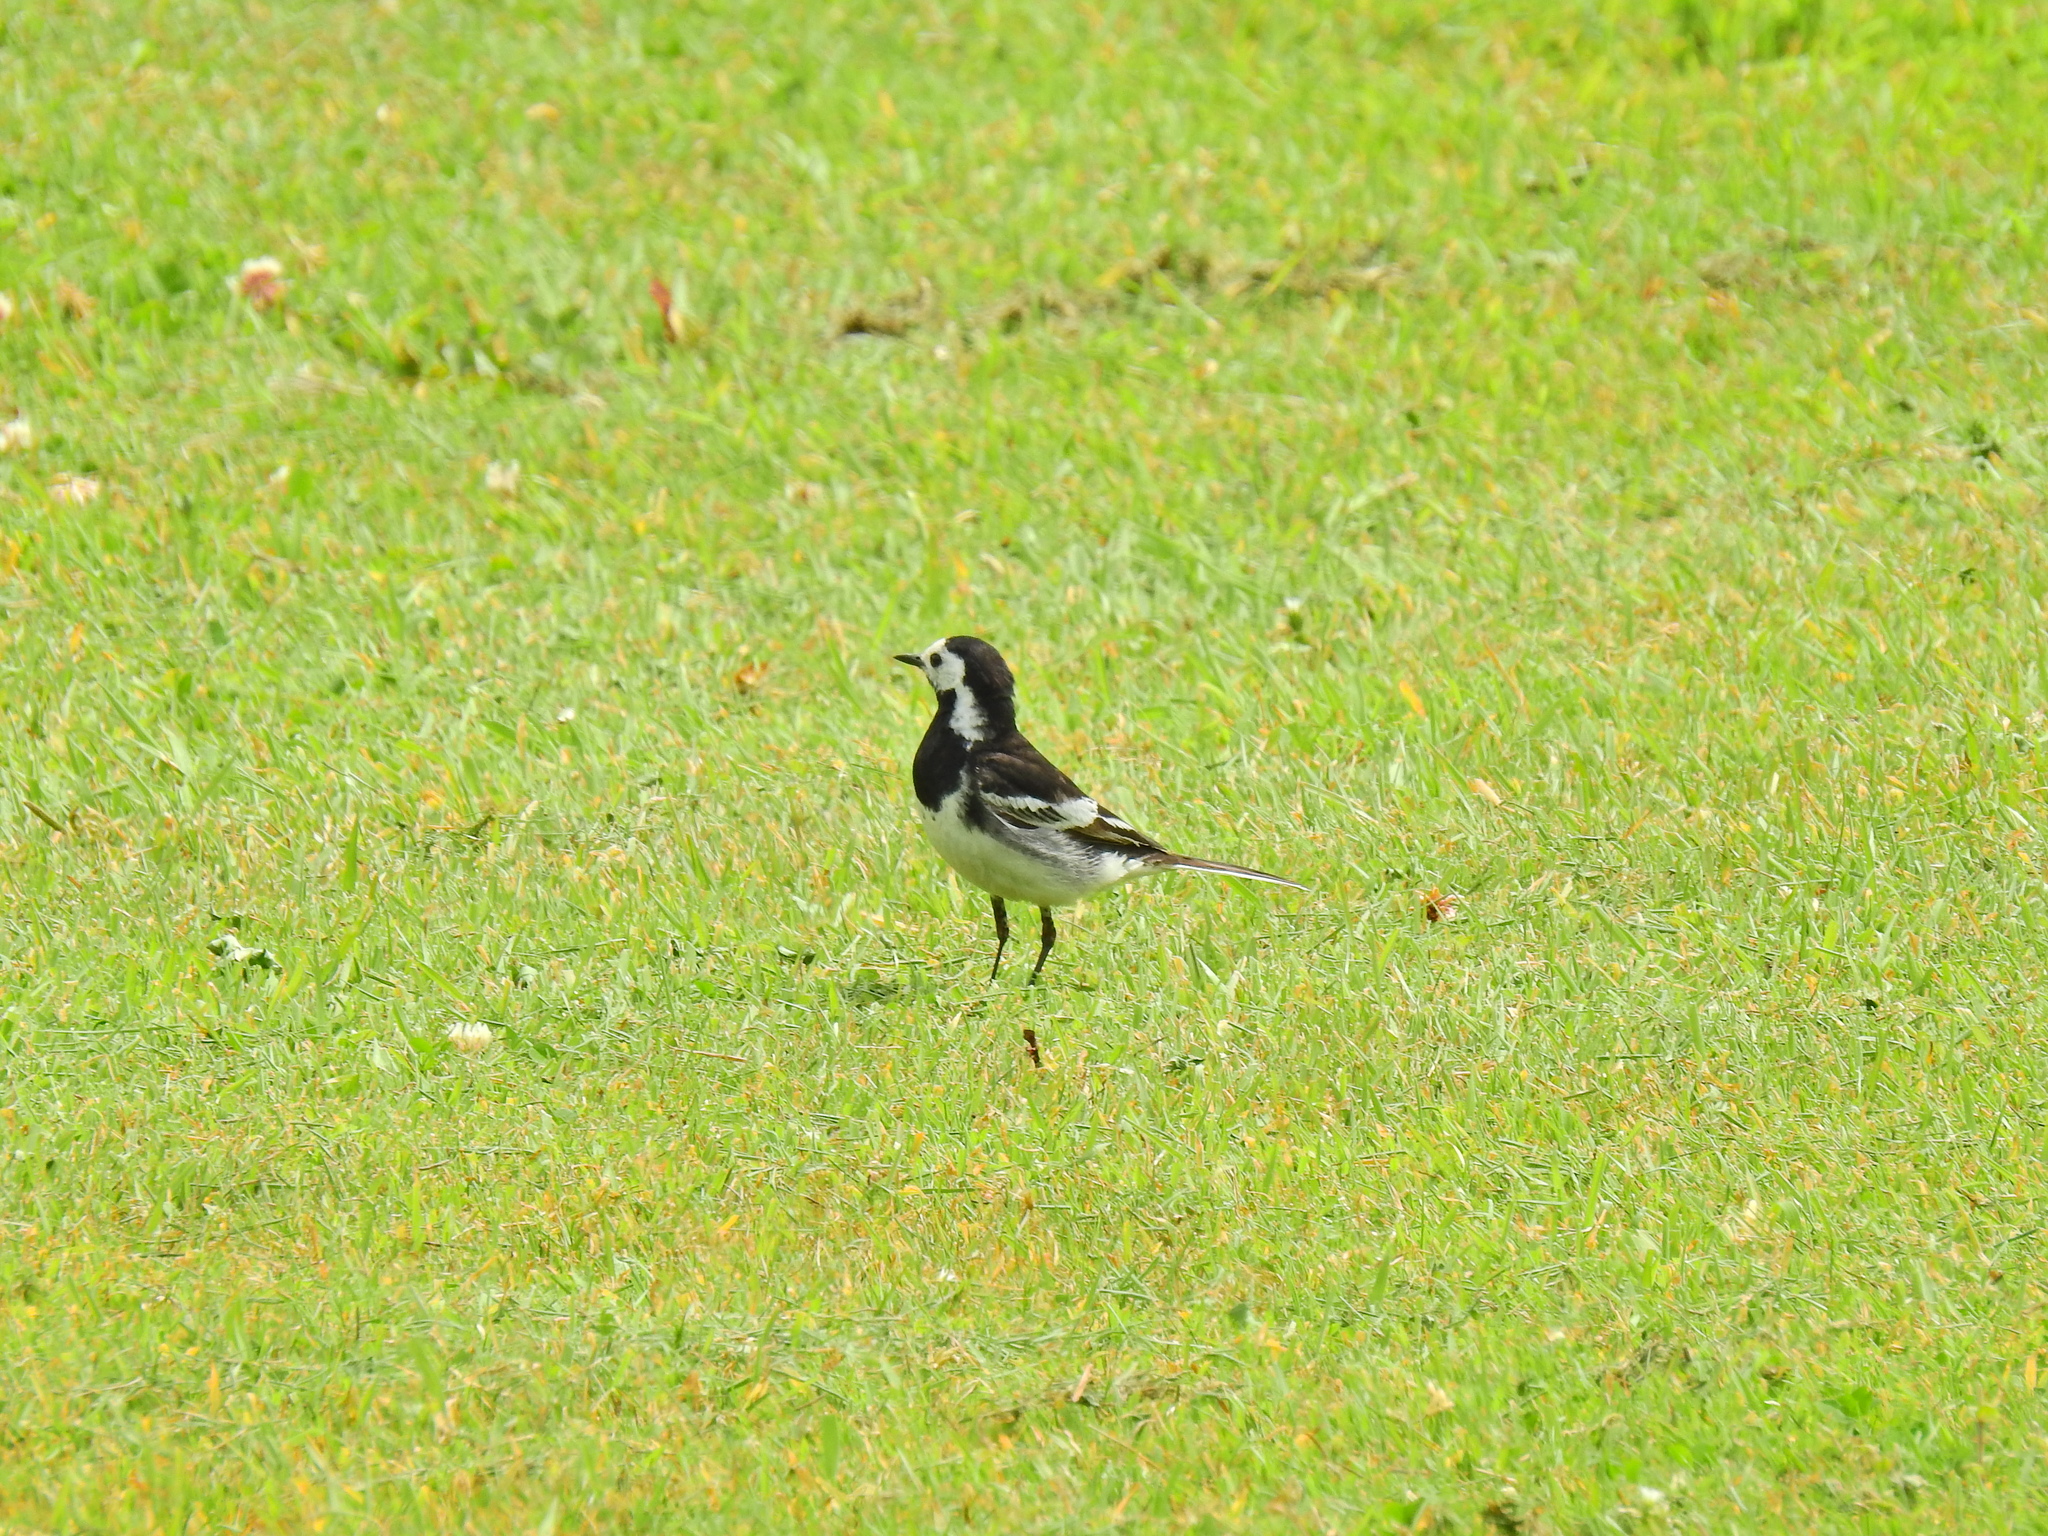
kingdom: Animalia
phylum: Chordata
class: Aves
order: Passeriformes
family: Motacillidae
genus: Motacilla
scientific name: Motacilla alba
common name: White wagtail
